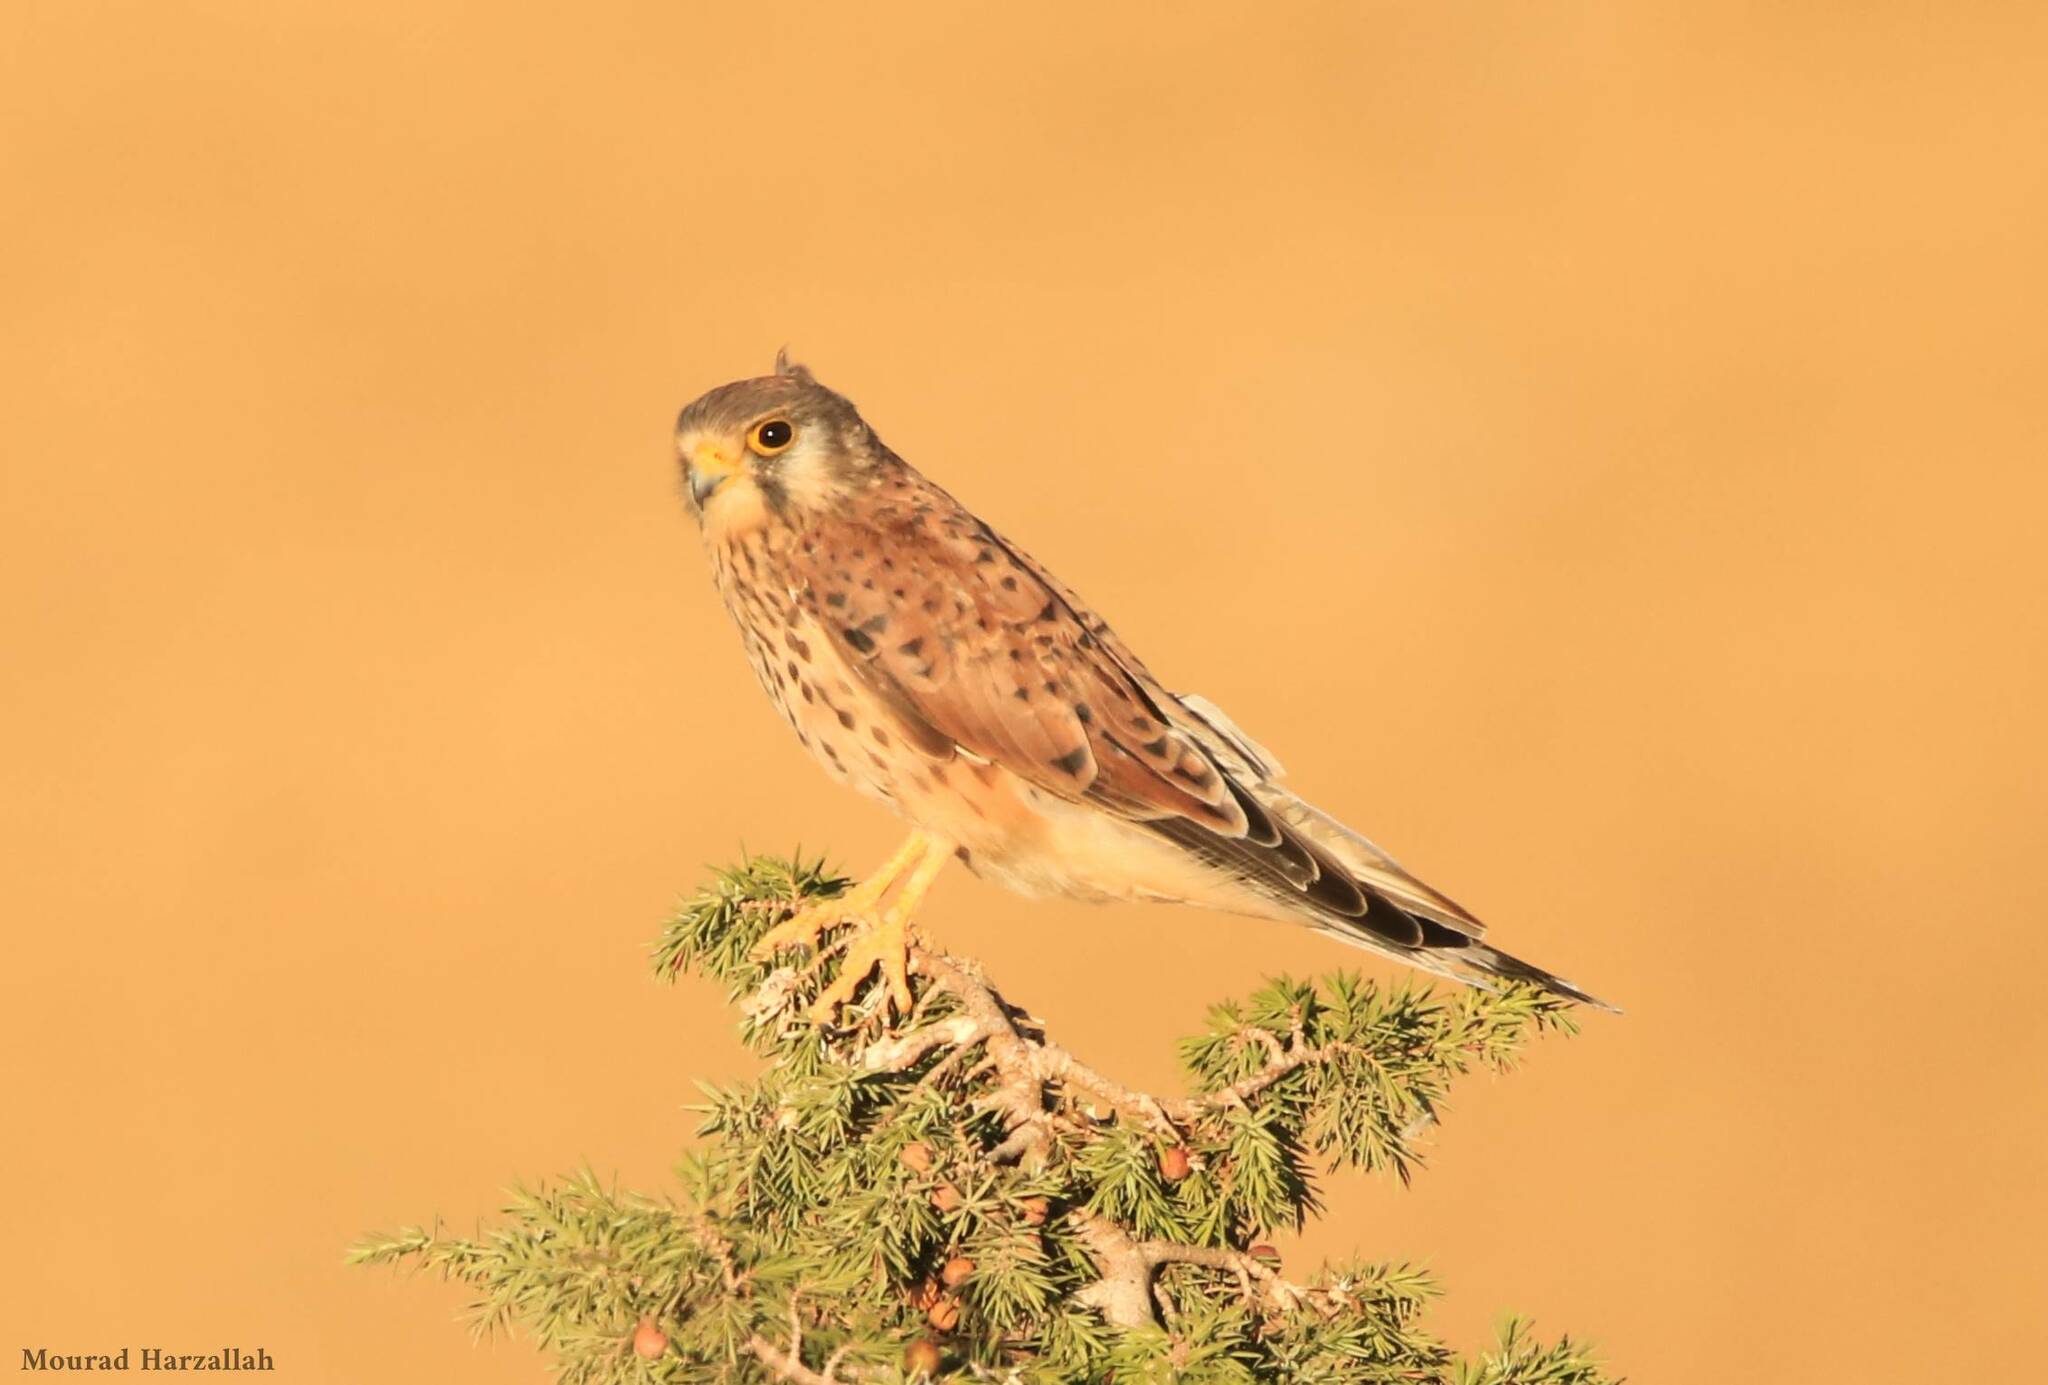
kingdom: Animalia
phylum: Chordata
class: Aves
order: Falconiformes
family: Falconidae
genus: Falco
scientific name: Falco tinnunculus
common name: Common kestrel
